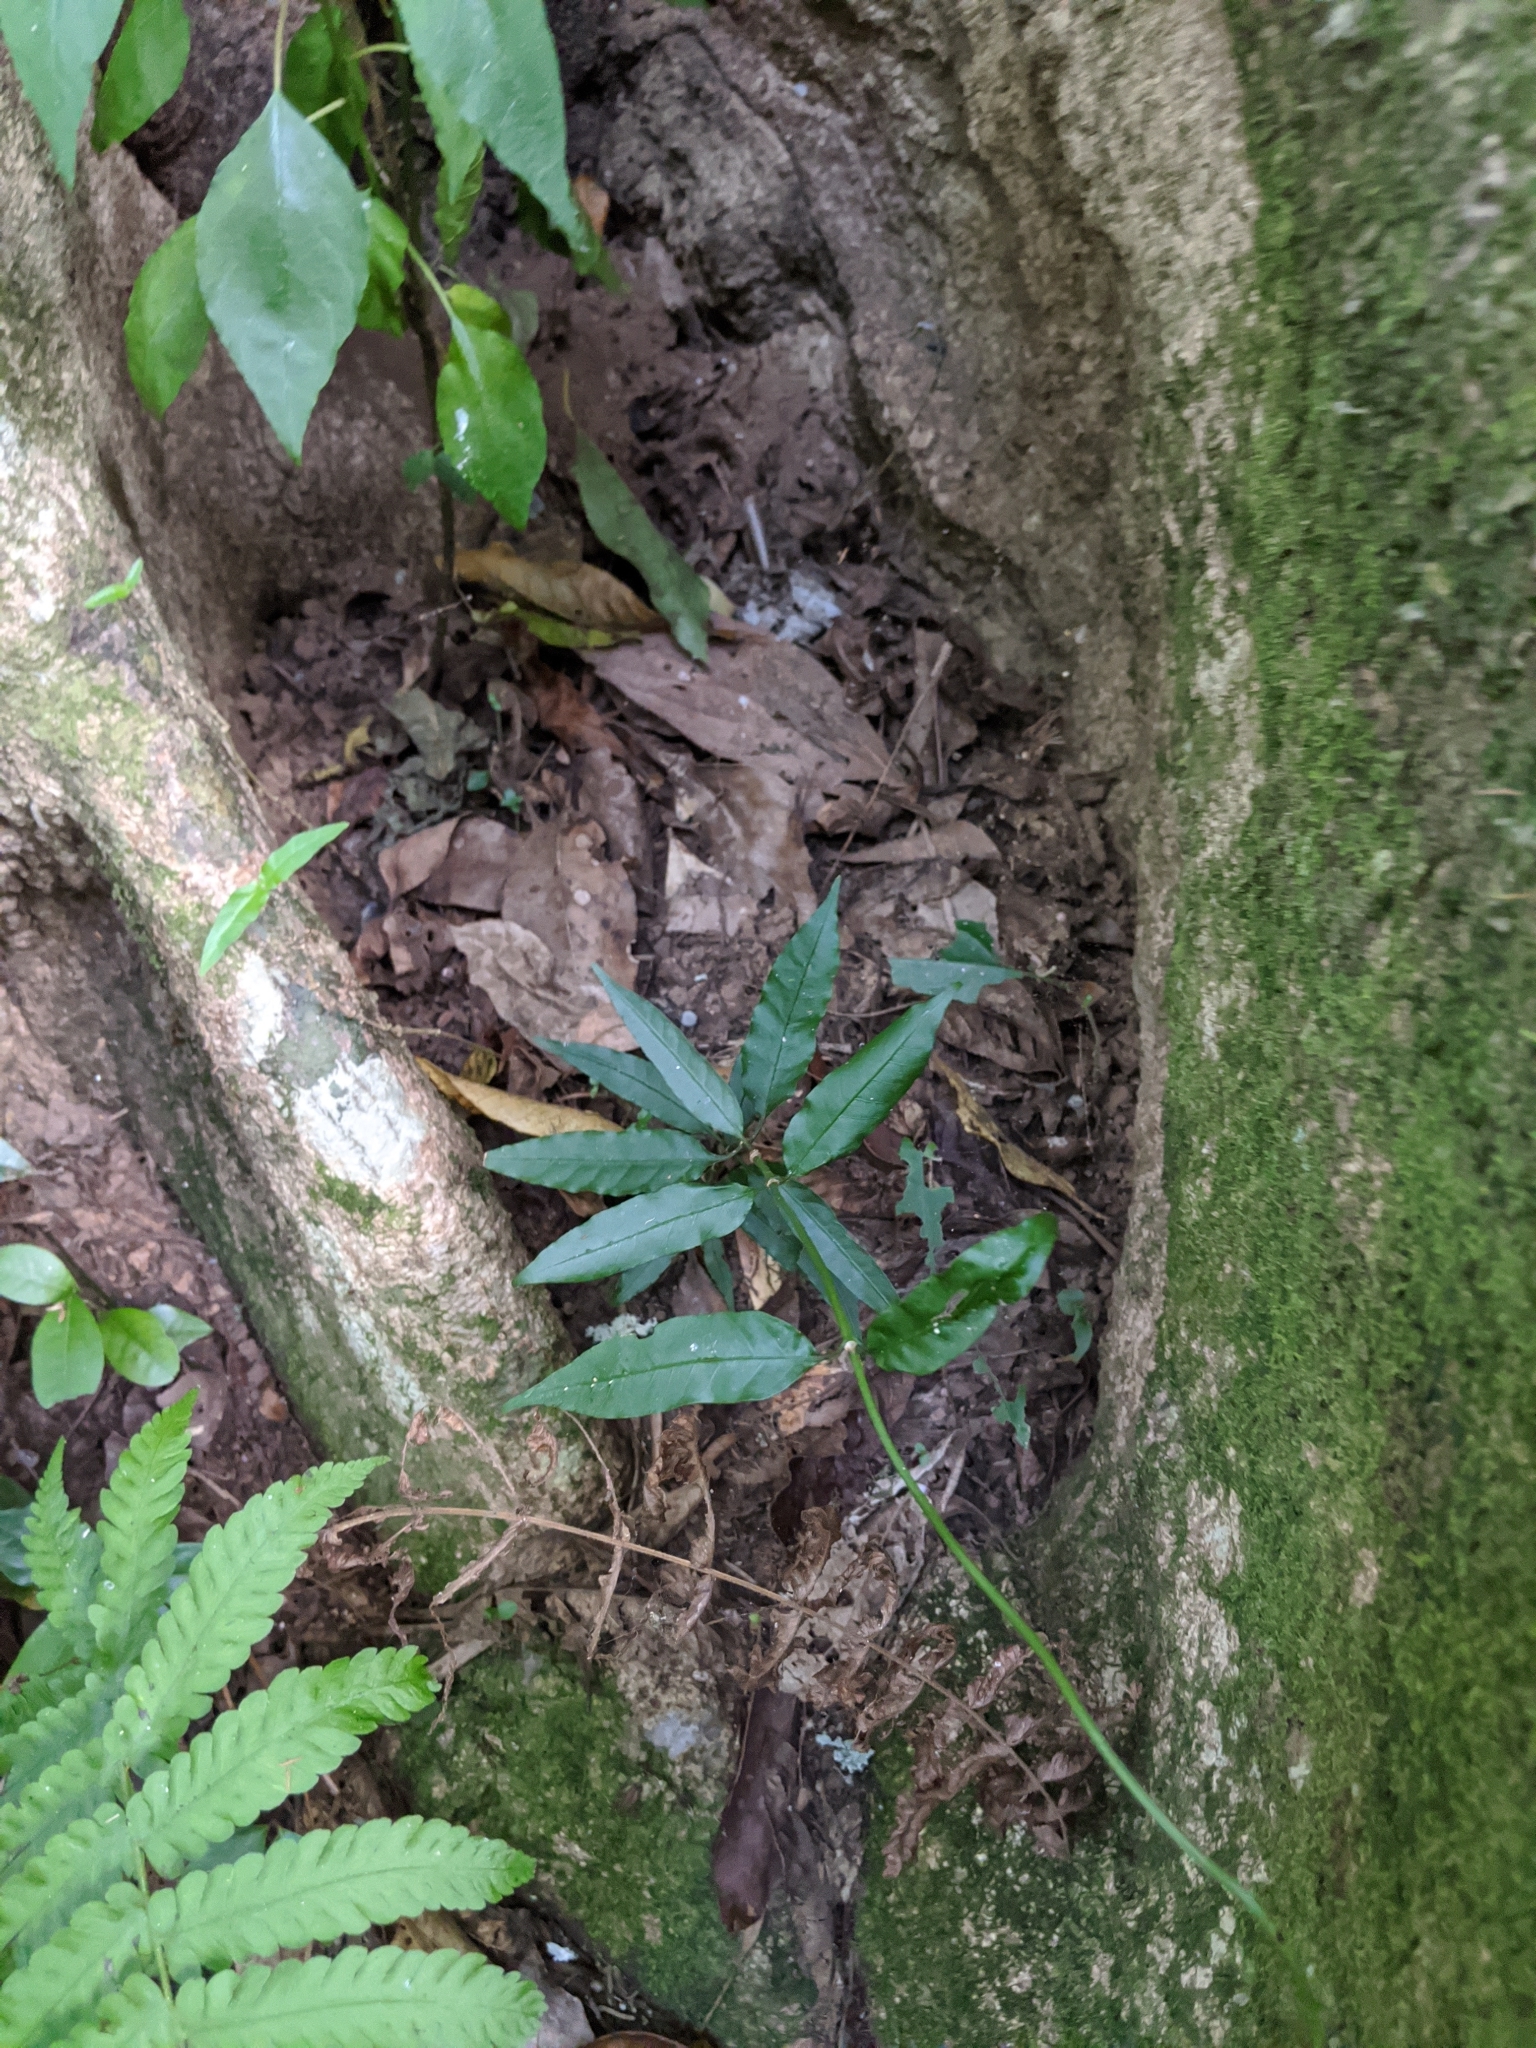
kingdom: Plantae
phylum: Tracheophyta
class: Magnoliopsida
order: Gentianales
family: Rubiaceae
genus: Gynochthodes
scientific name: Gynochthodes jasminoides
